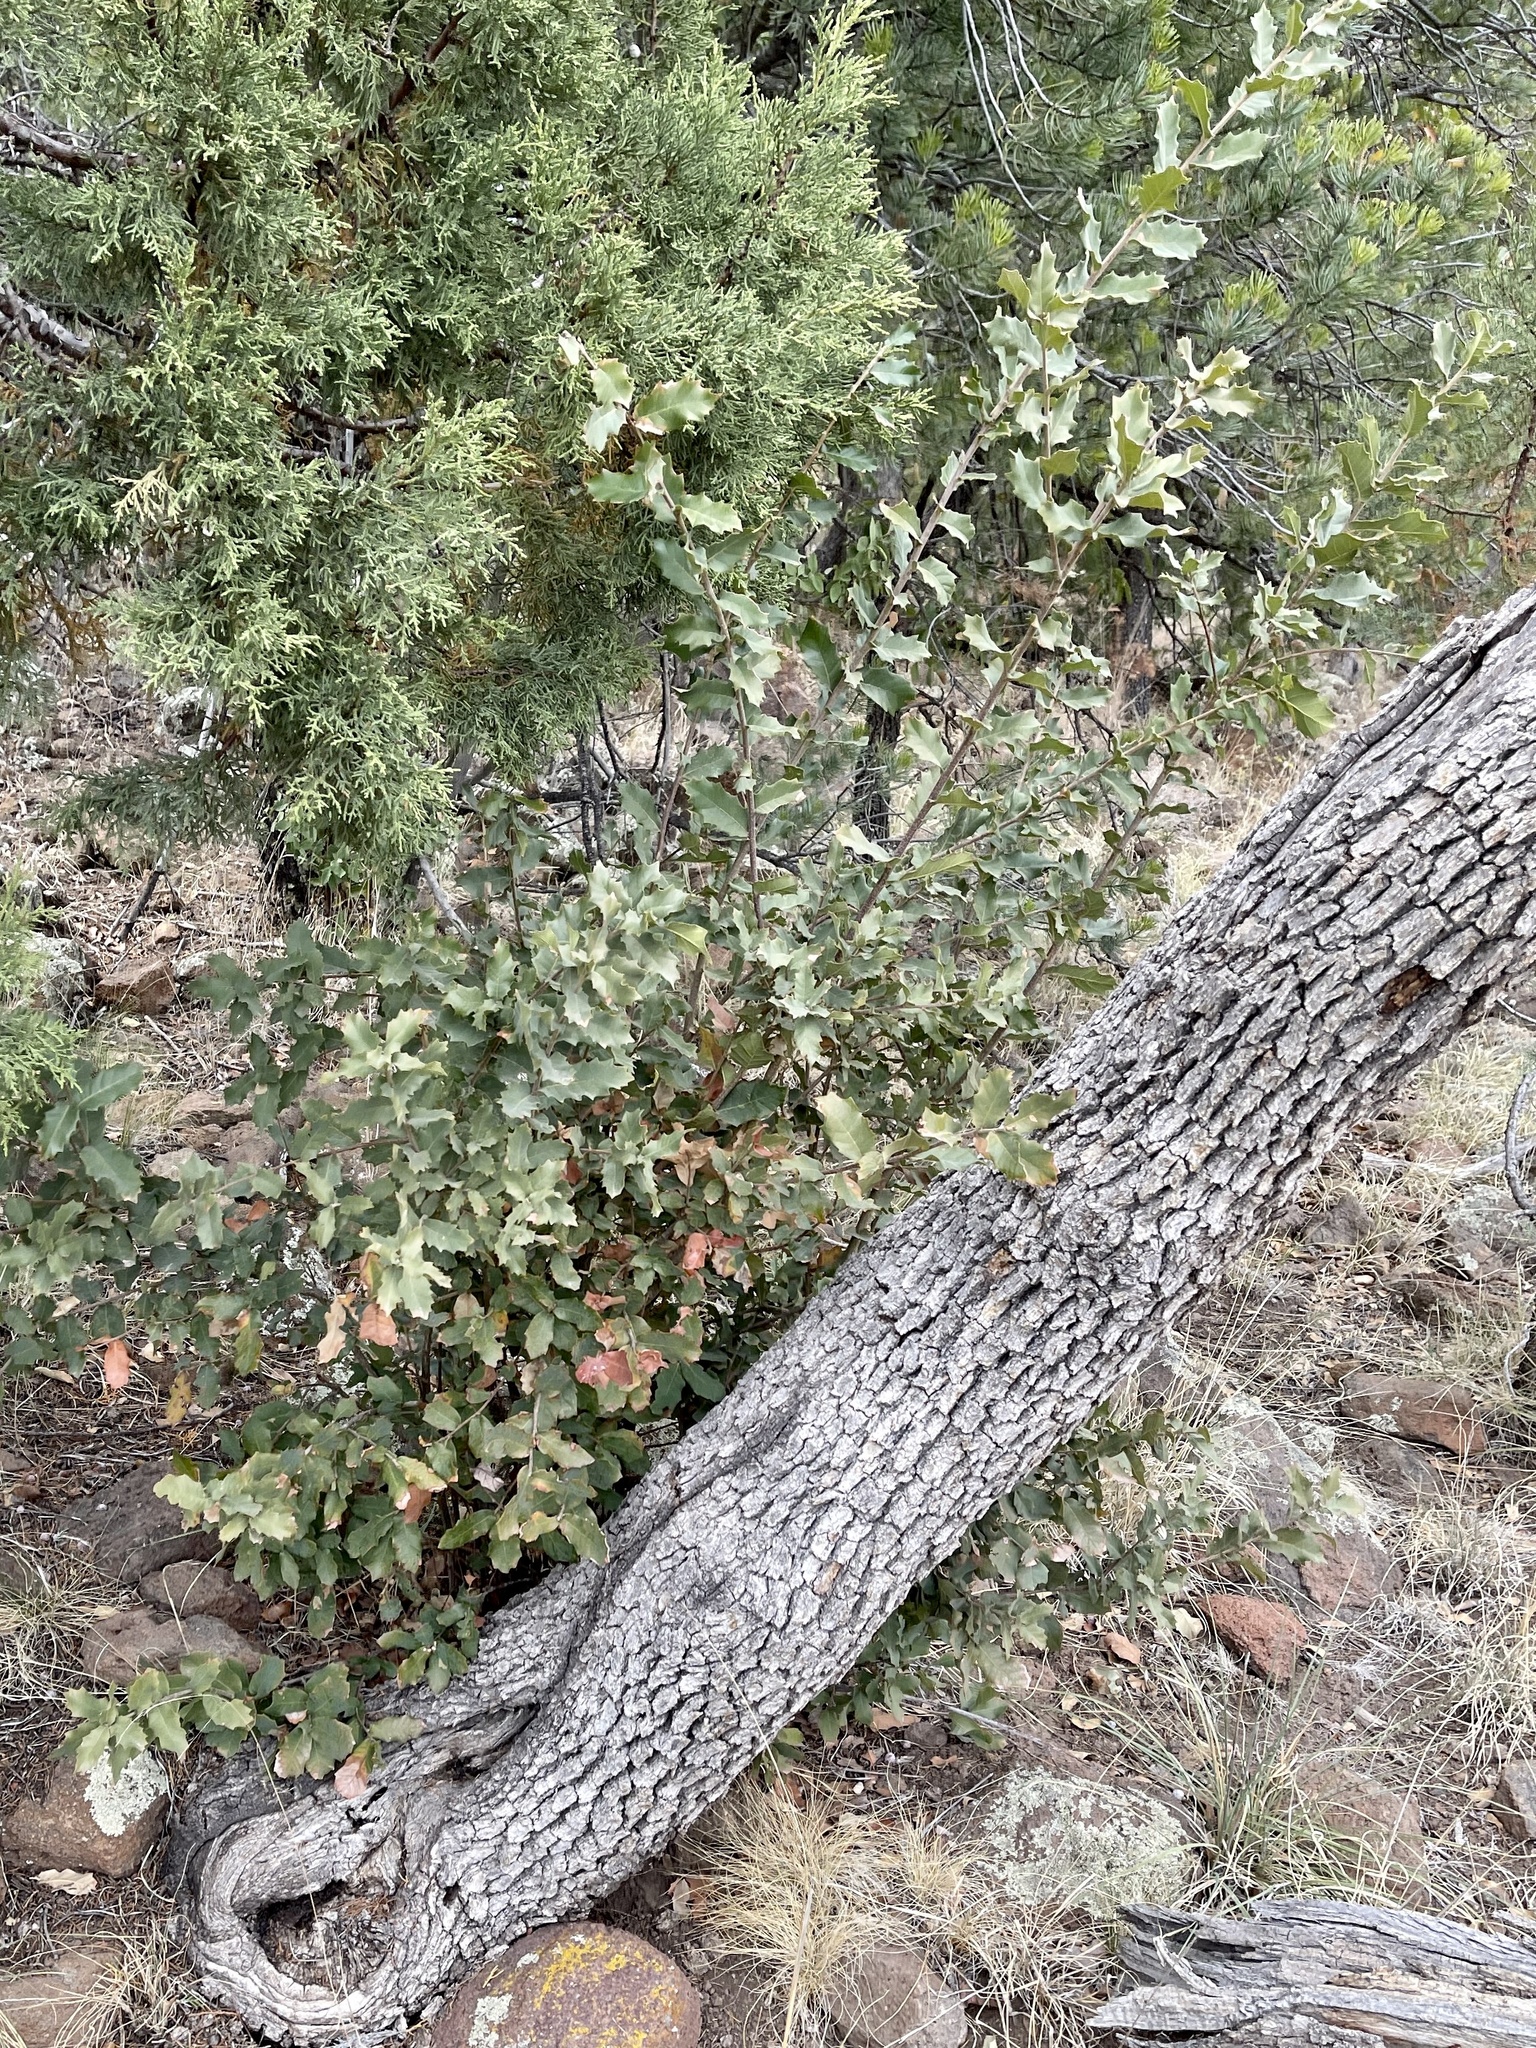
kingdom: Plantae
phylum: Tracheophyta
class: Magnoliopsida
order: Fagales
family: Fagaceae
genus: Quercus
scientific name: Quercus turbinella
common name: Sonoran scrub oak
